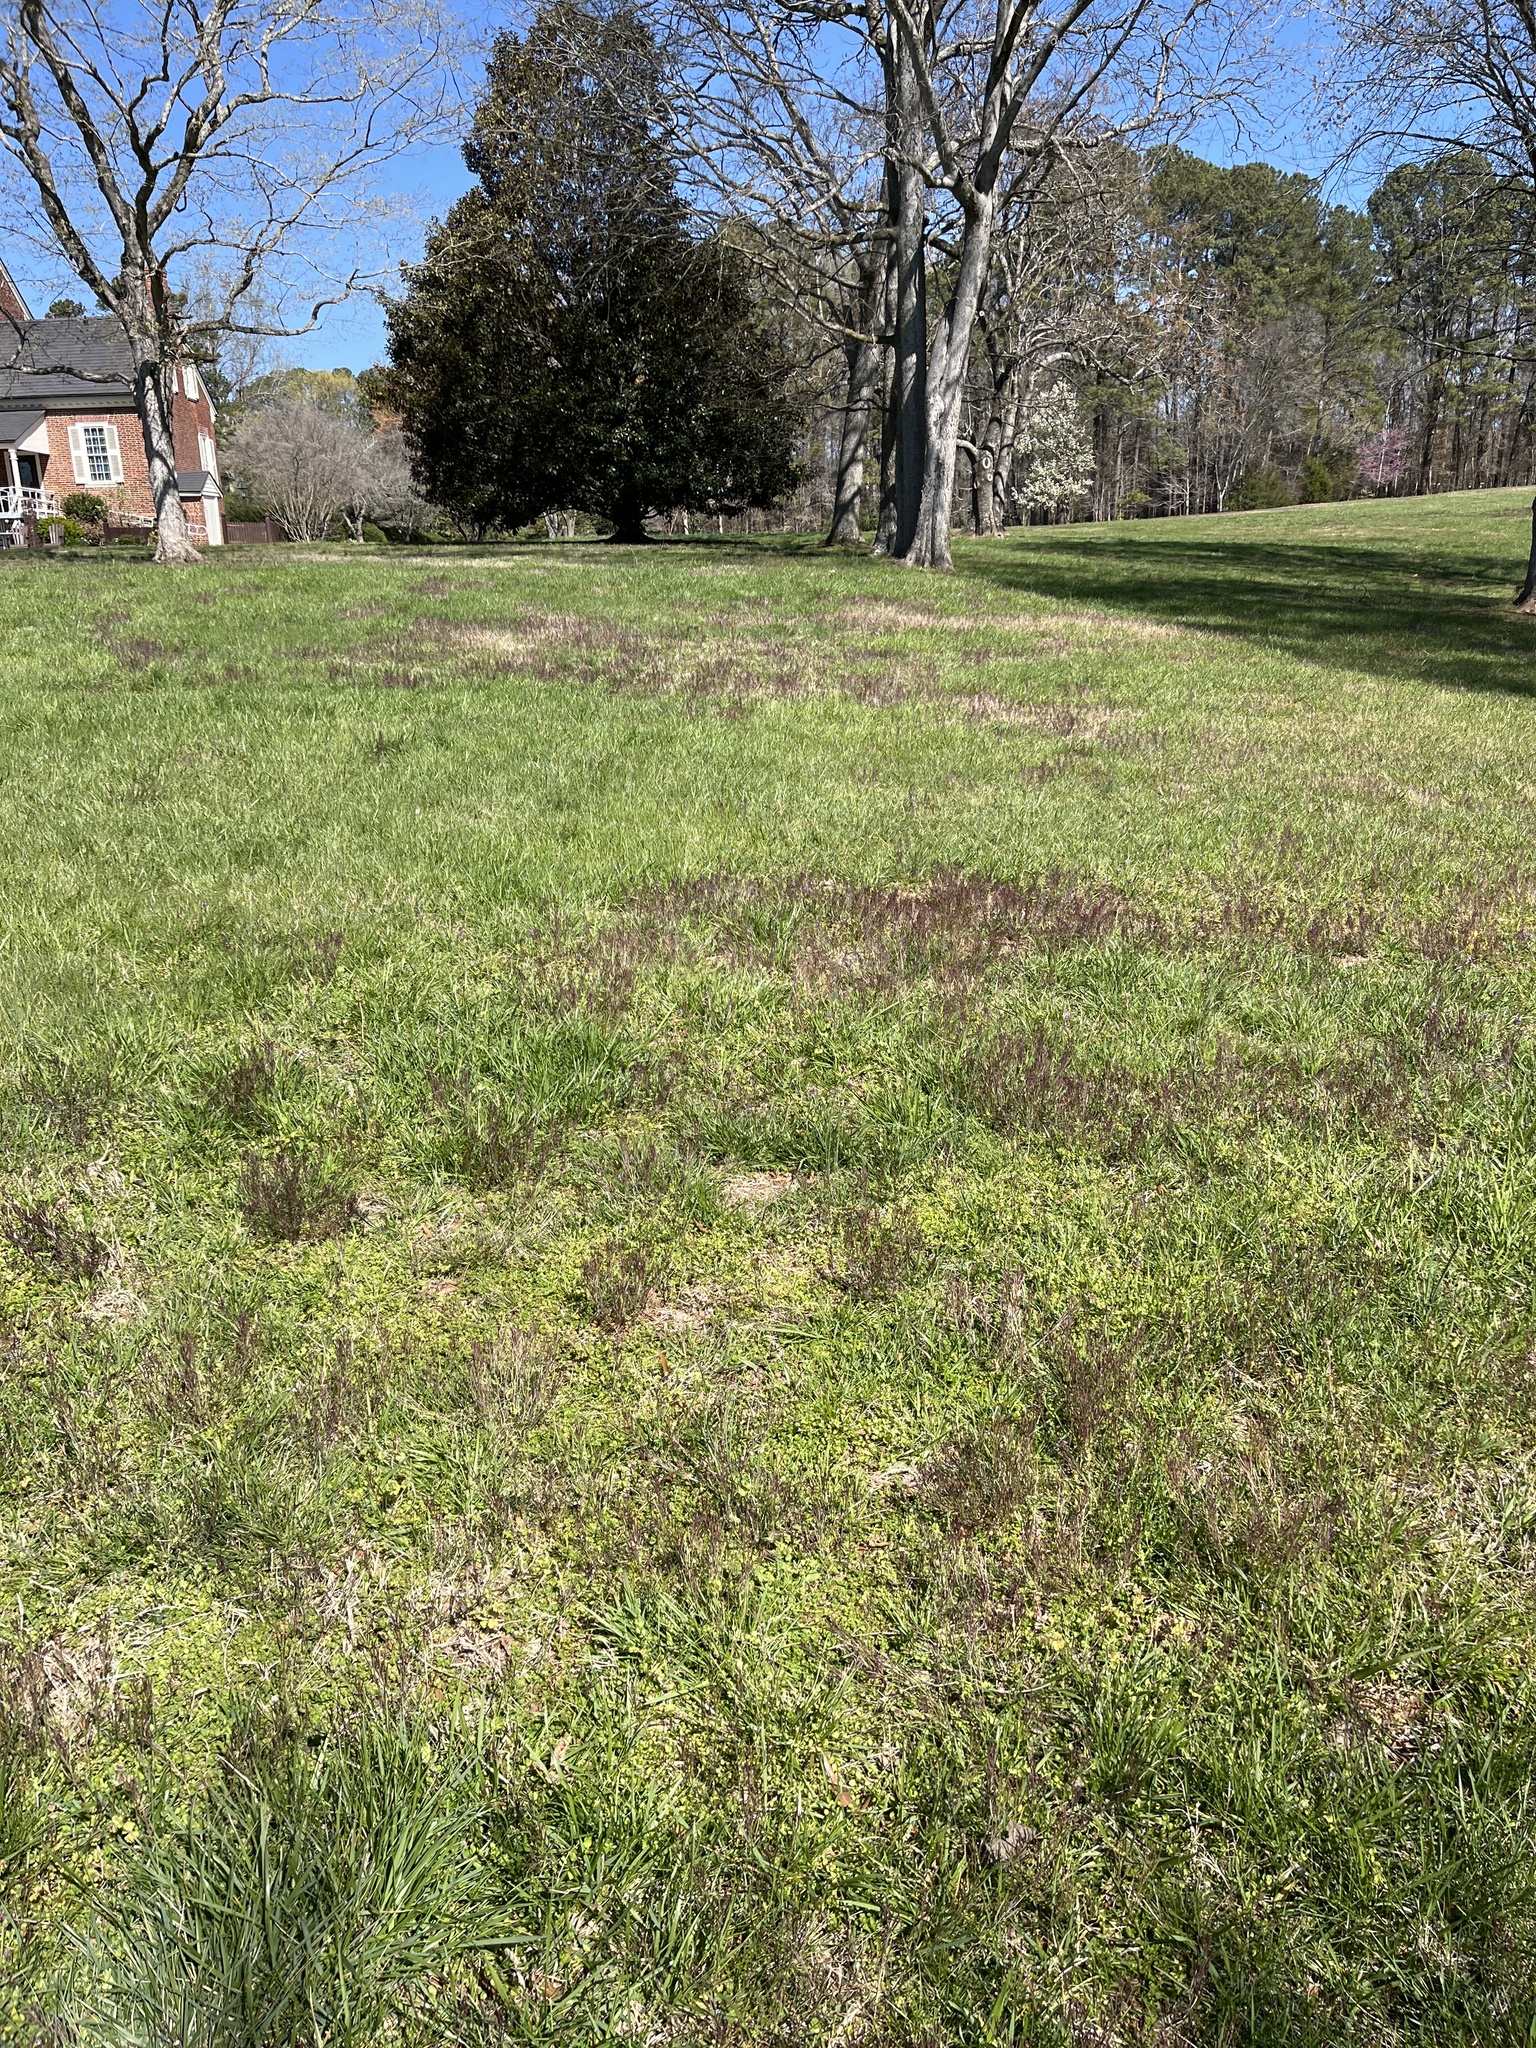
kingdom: Plantae
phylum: Tracheophyta
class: Magnoliopsida
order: Brassicales
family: Brassicaceae
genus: Cardamine
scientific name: Cardamine hirsuta
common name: Hairy bittercress
